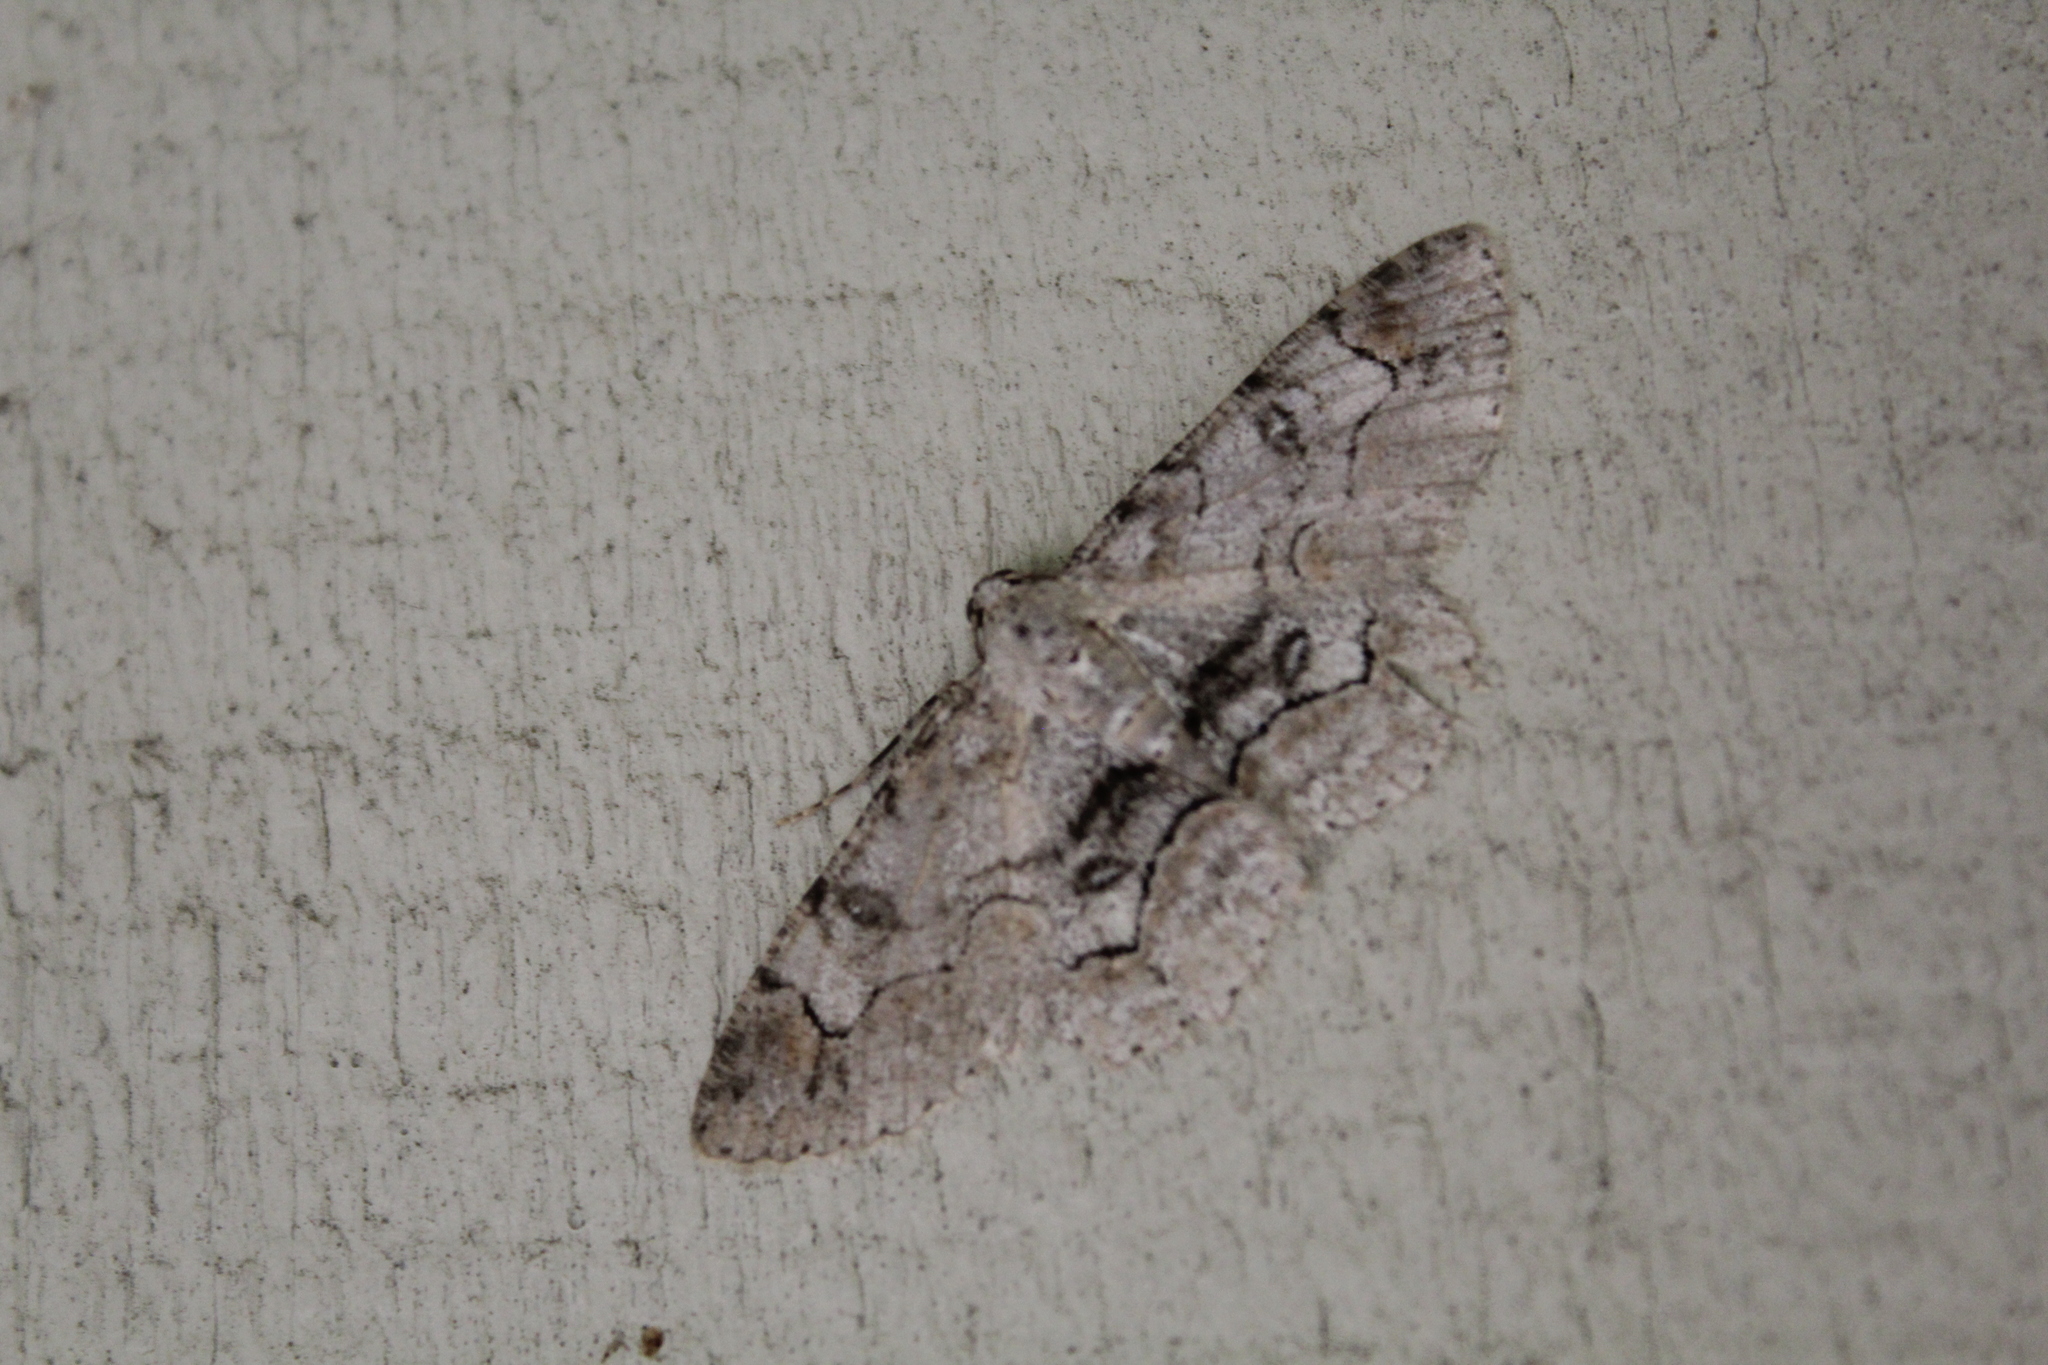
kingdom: Animalia
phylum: Arthropoda
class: Insecta
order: Lepidoptera
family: Geometridae
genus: Iridopsis
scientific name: Iridopsis larvaria
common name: Bent-line gray
